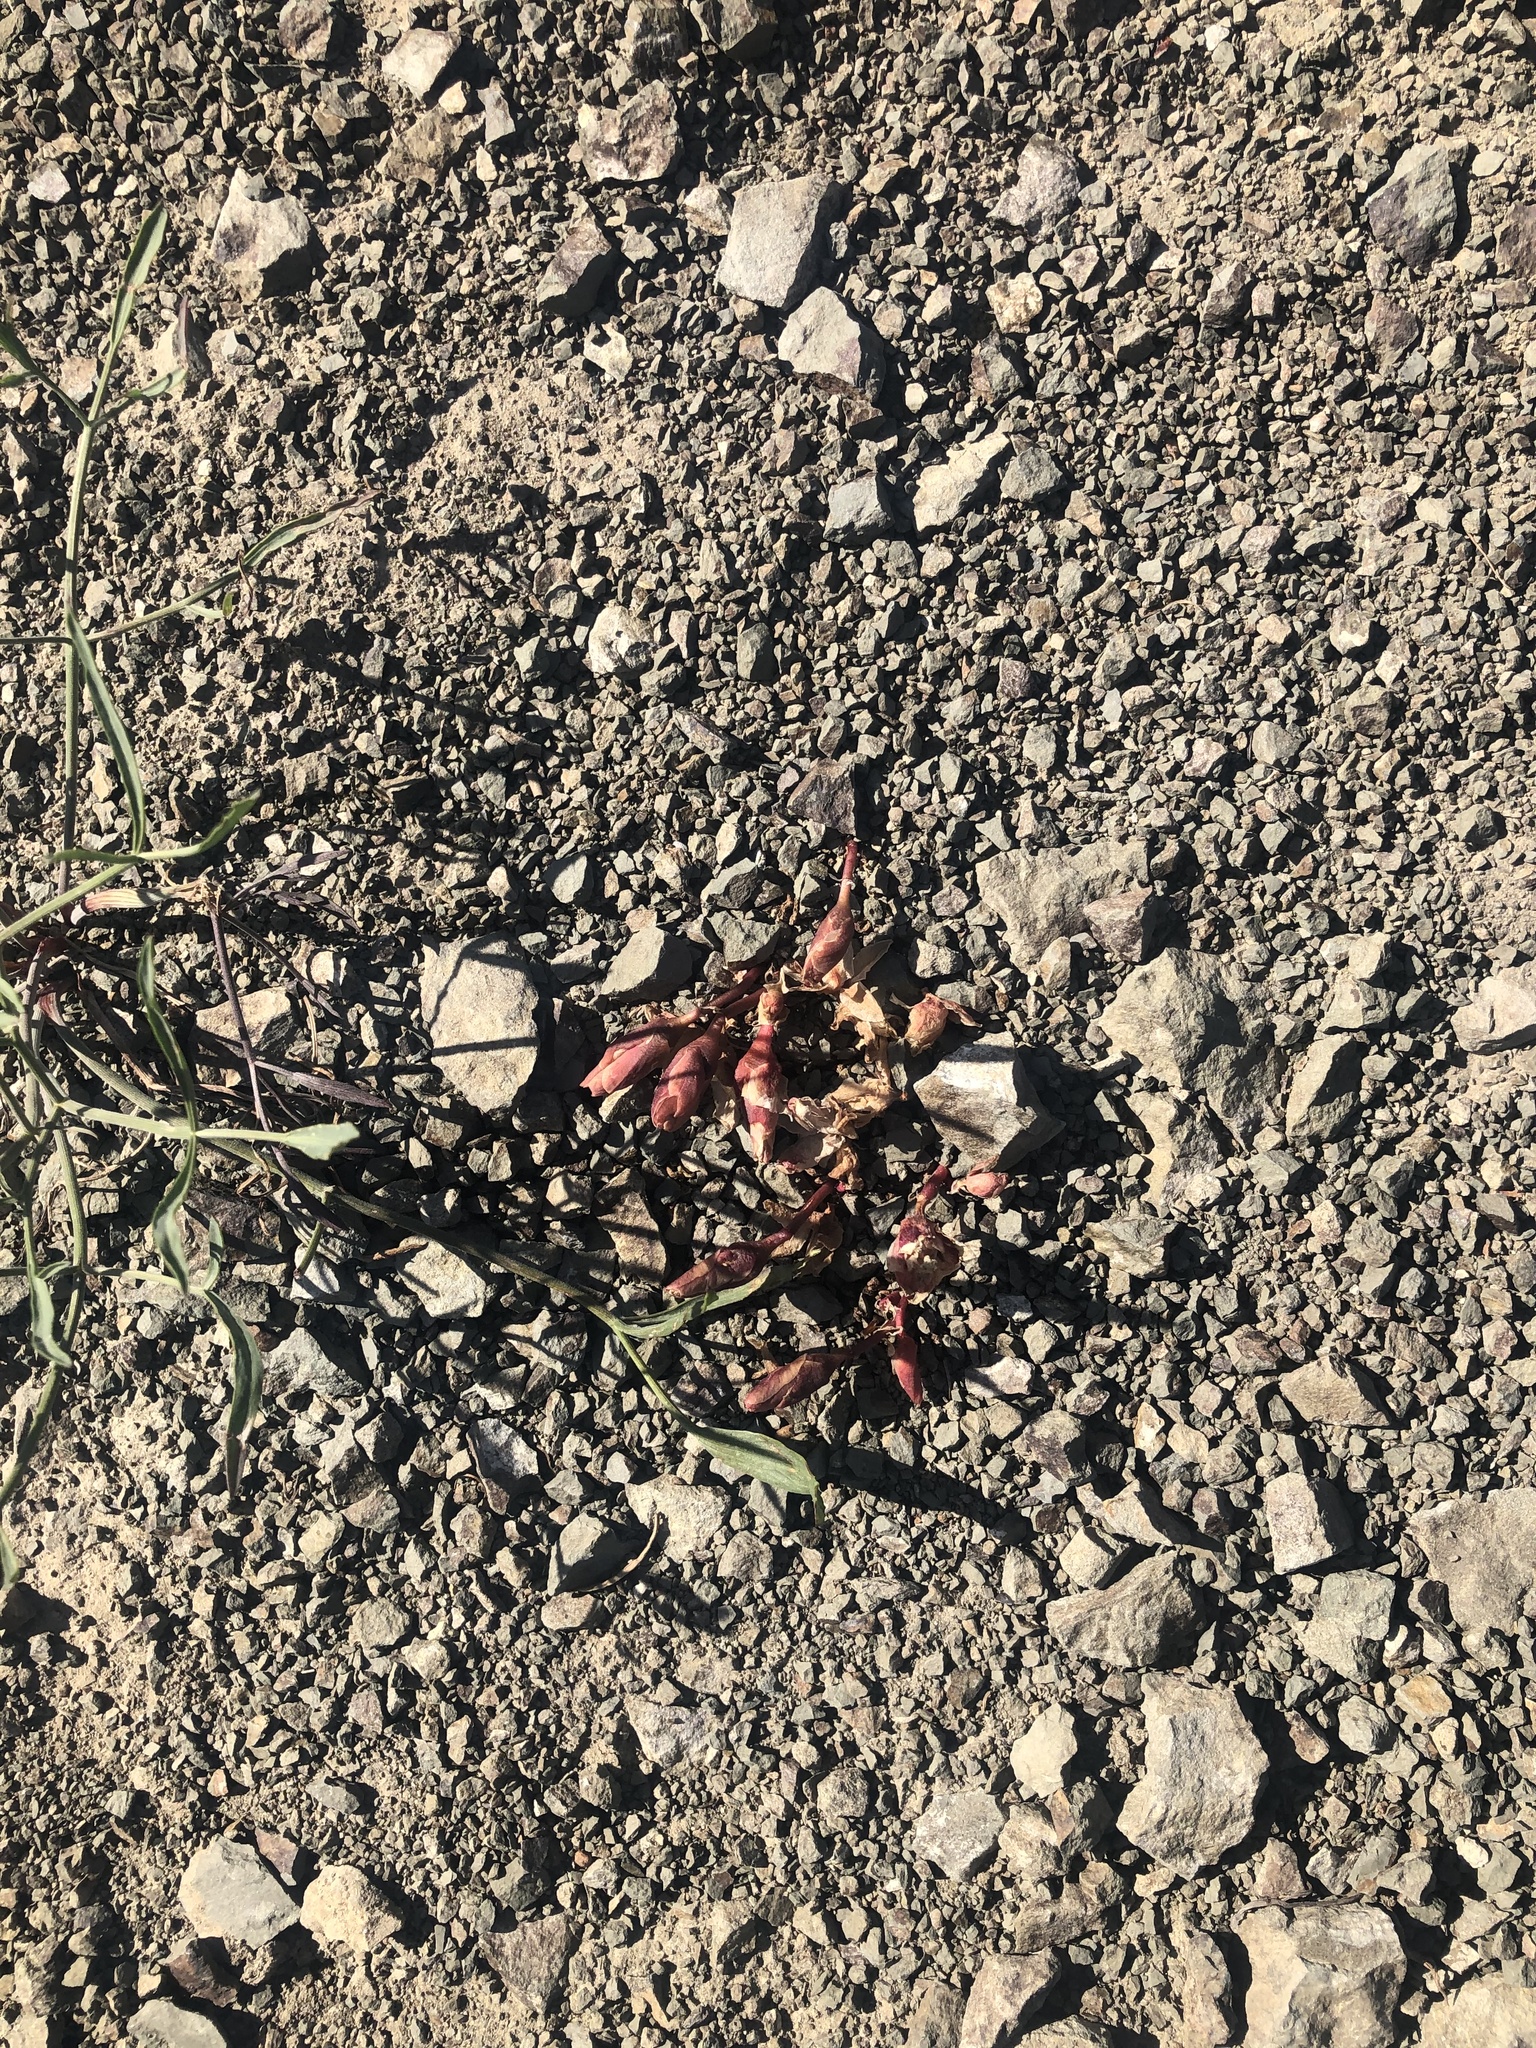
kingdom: Plantae
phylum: Tracheophyta
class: Magnoliopsida
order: Caryophyllales
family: Montiaceae
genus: Lewisia
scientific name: Lewisia rediviva
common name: Bitter-root
